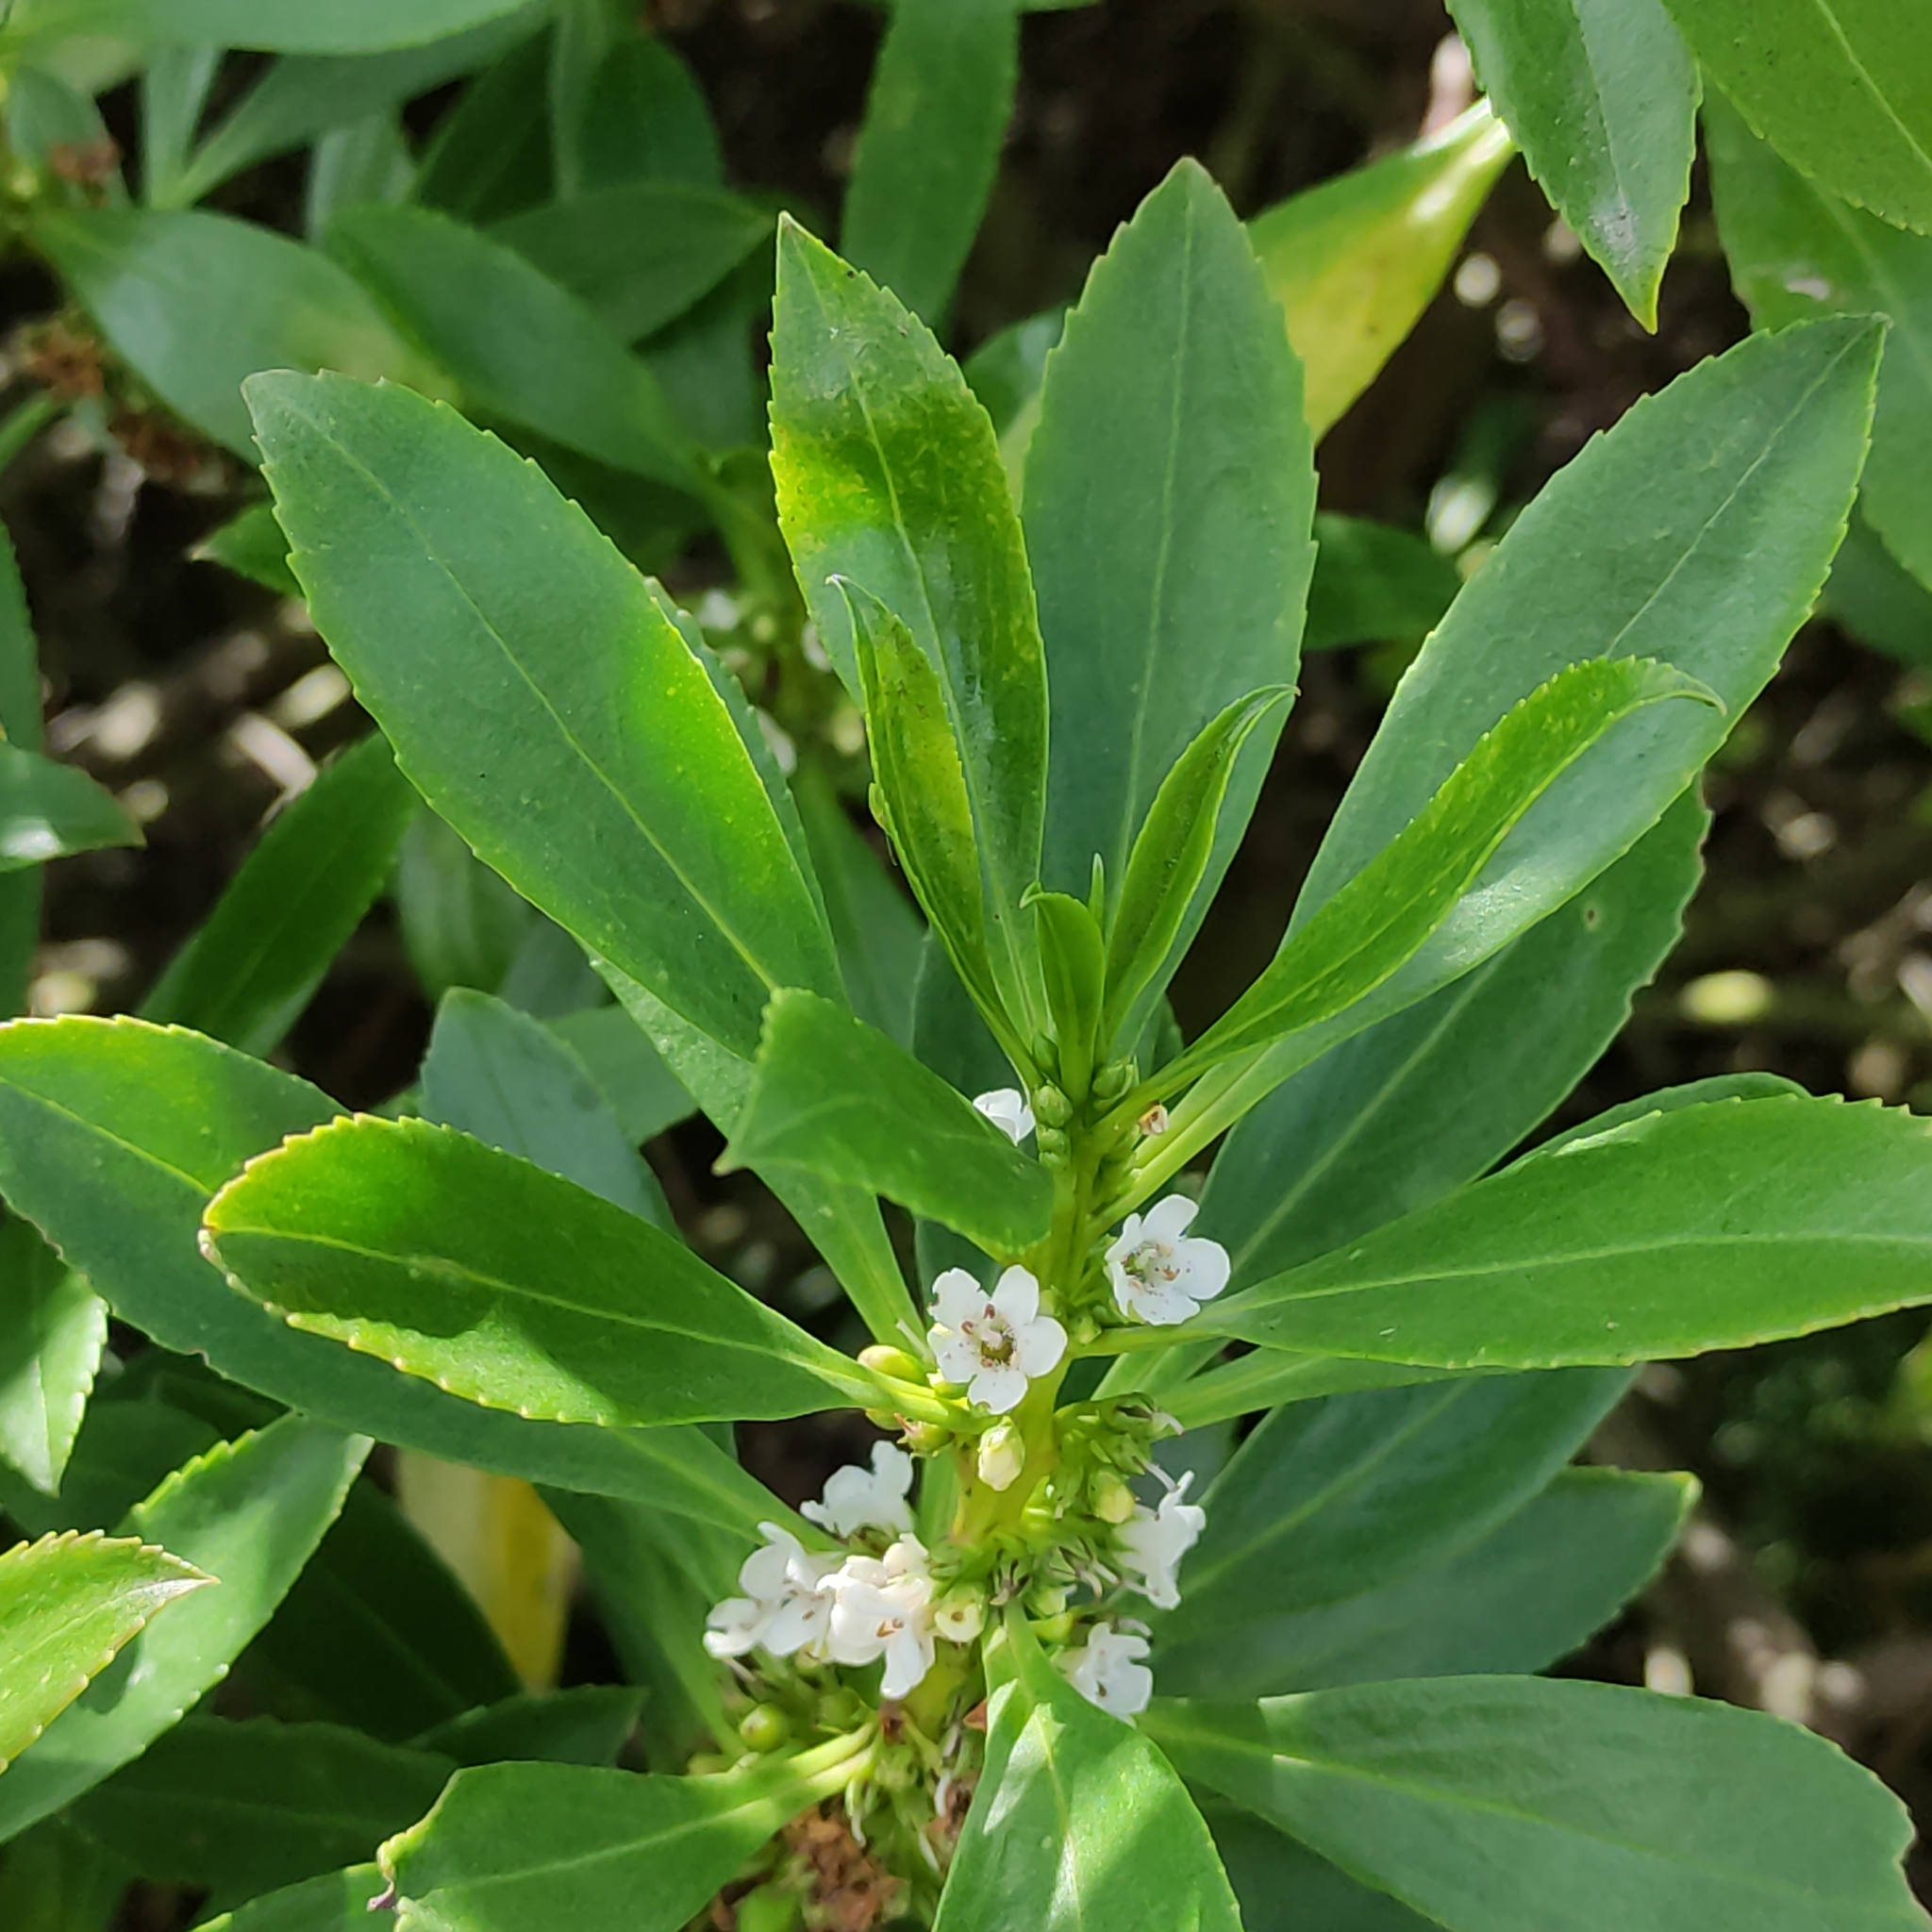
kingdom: Plantae
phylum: Tracheophyta
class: Magnoliopsida
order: Lamiales
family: Scrophulariaceae
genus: Myoporum
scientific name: Myoporum insulare
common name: Common boobialla
